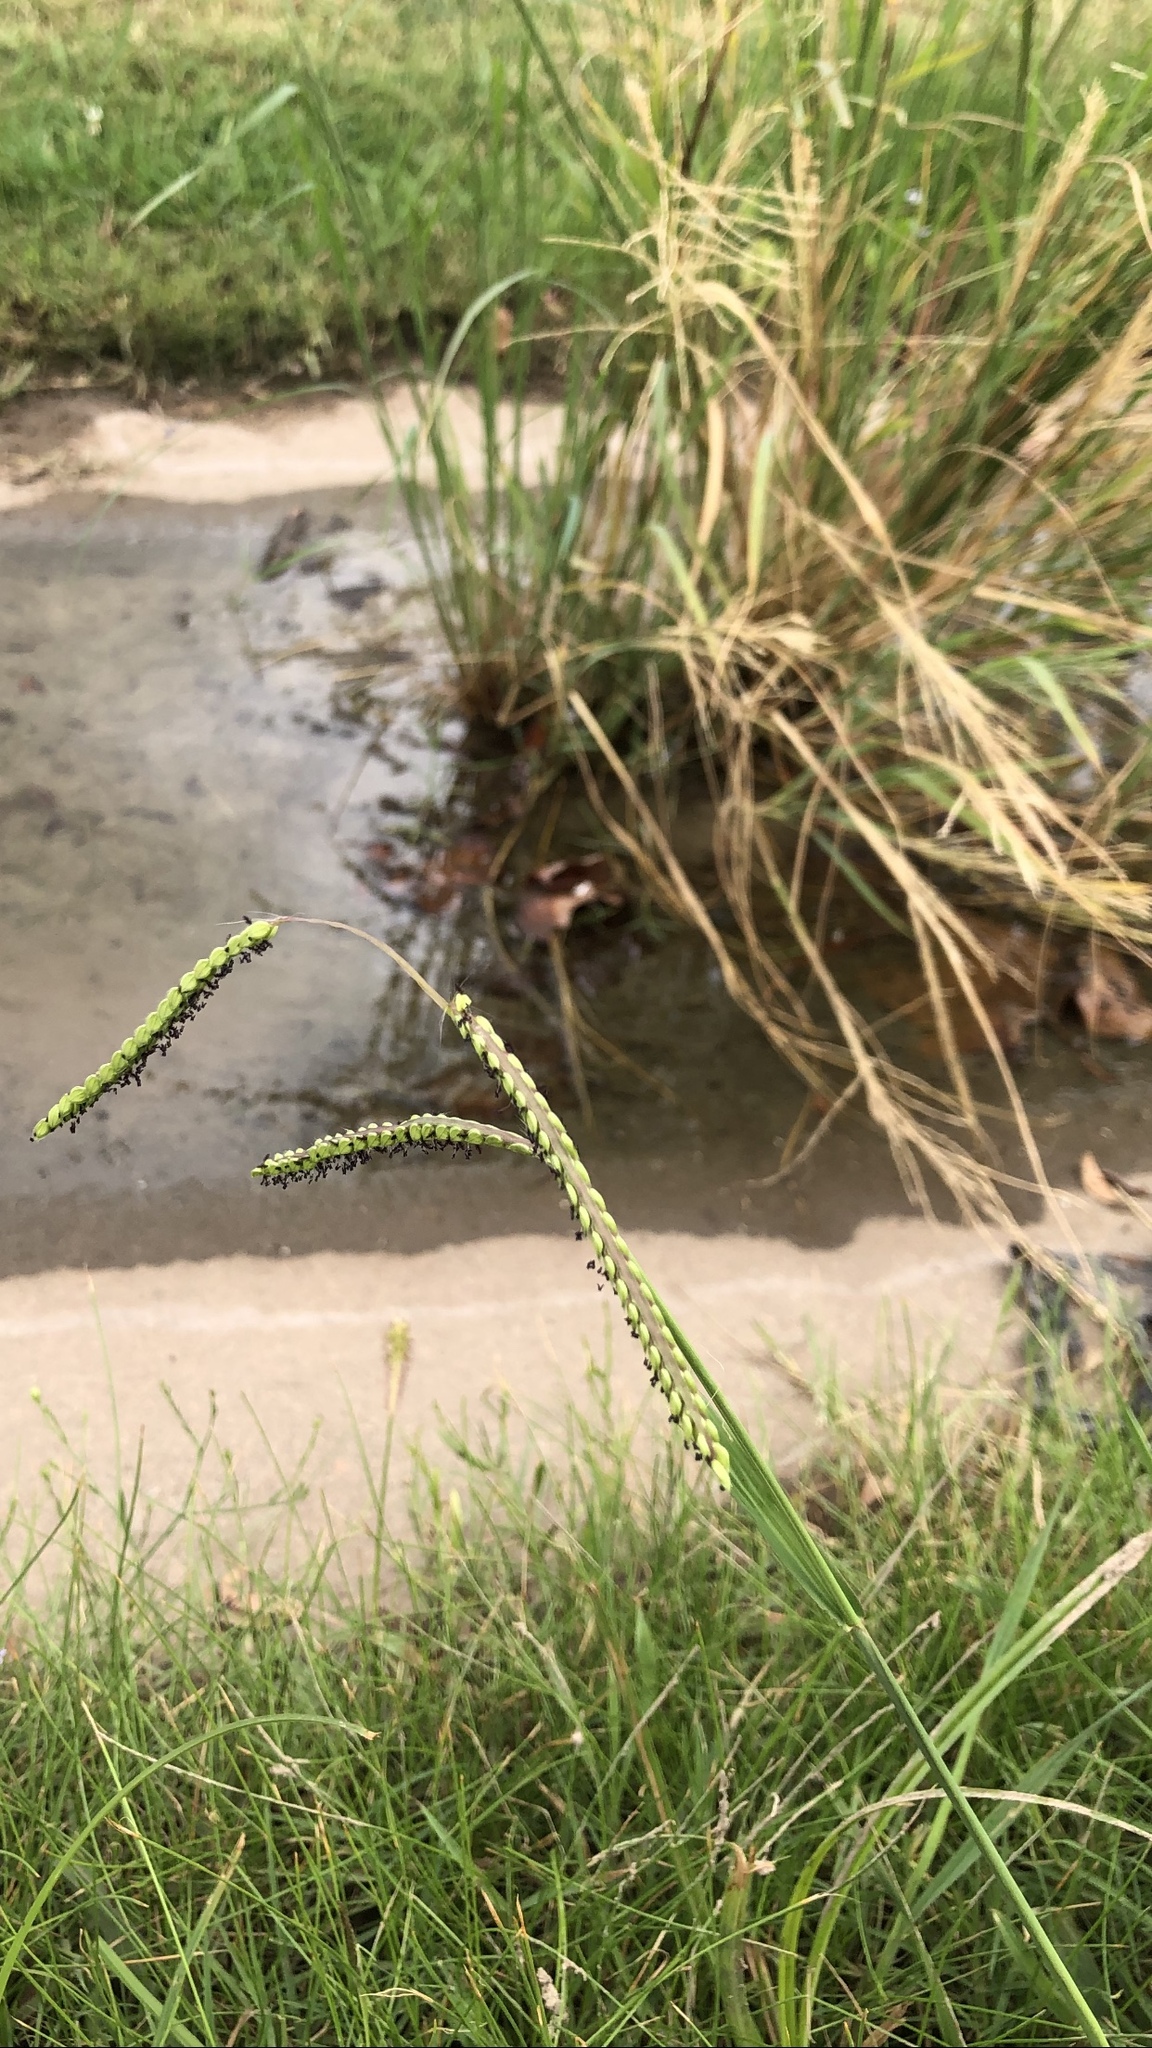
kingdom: Plantae
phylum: Tracheophyta
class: Liliopsida
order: Poales
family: Poaceae
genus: Paspalum
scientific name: Paspalum dilatatum
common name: Dallisgrass
